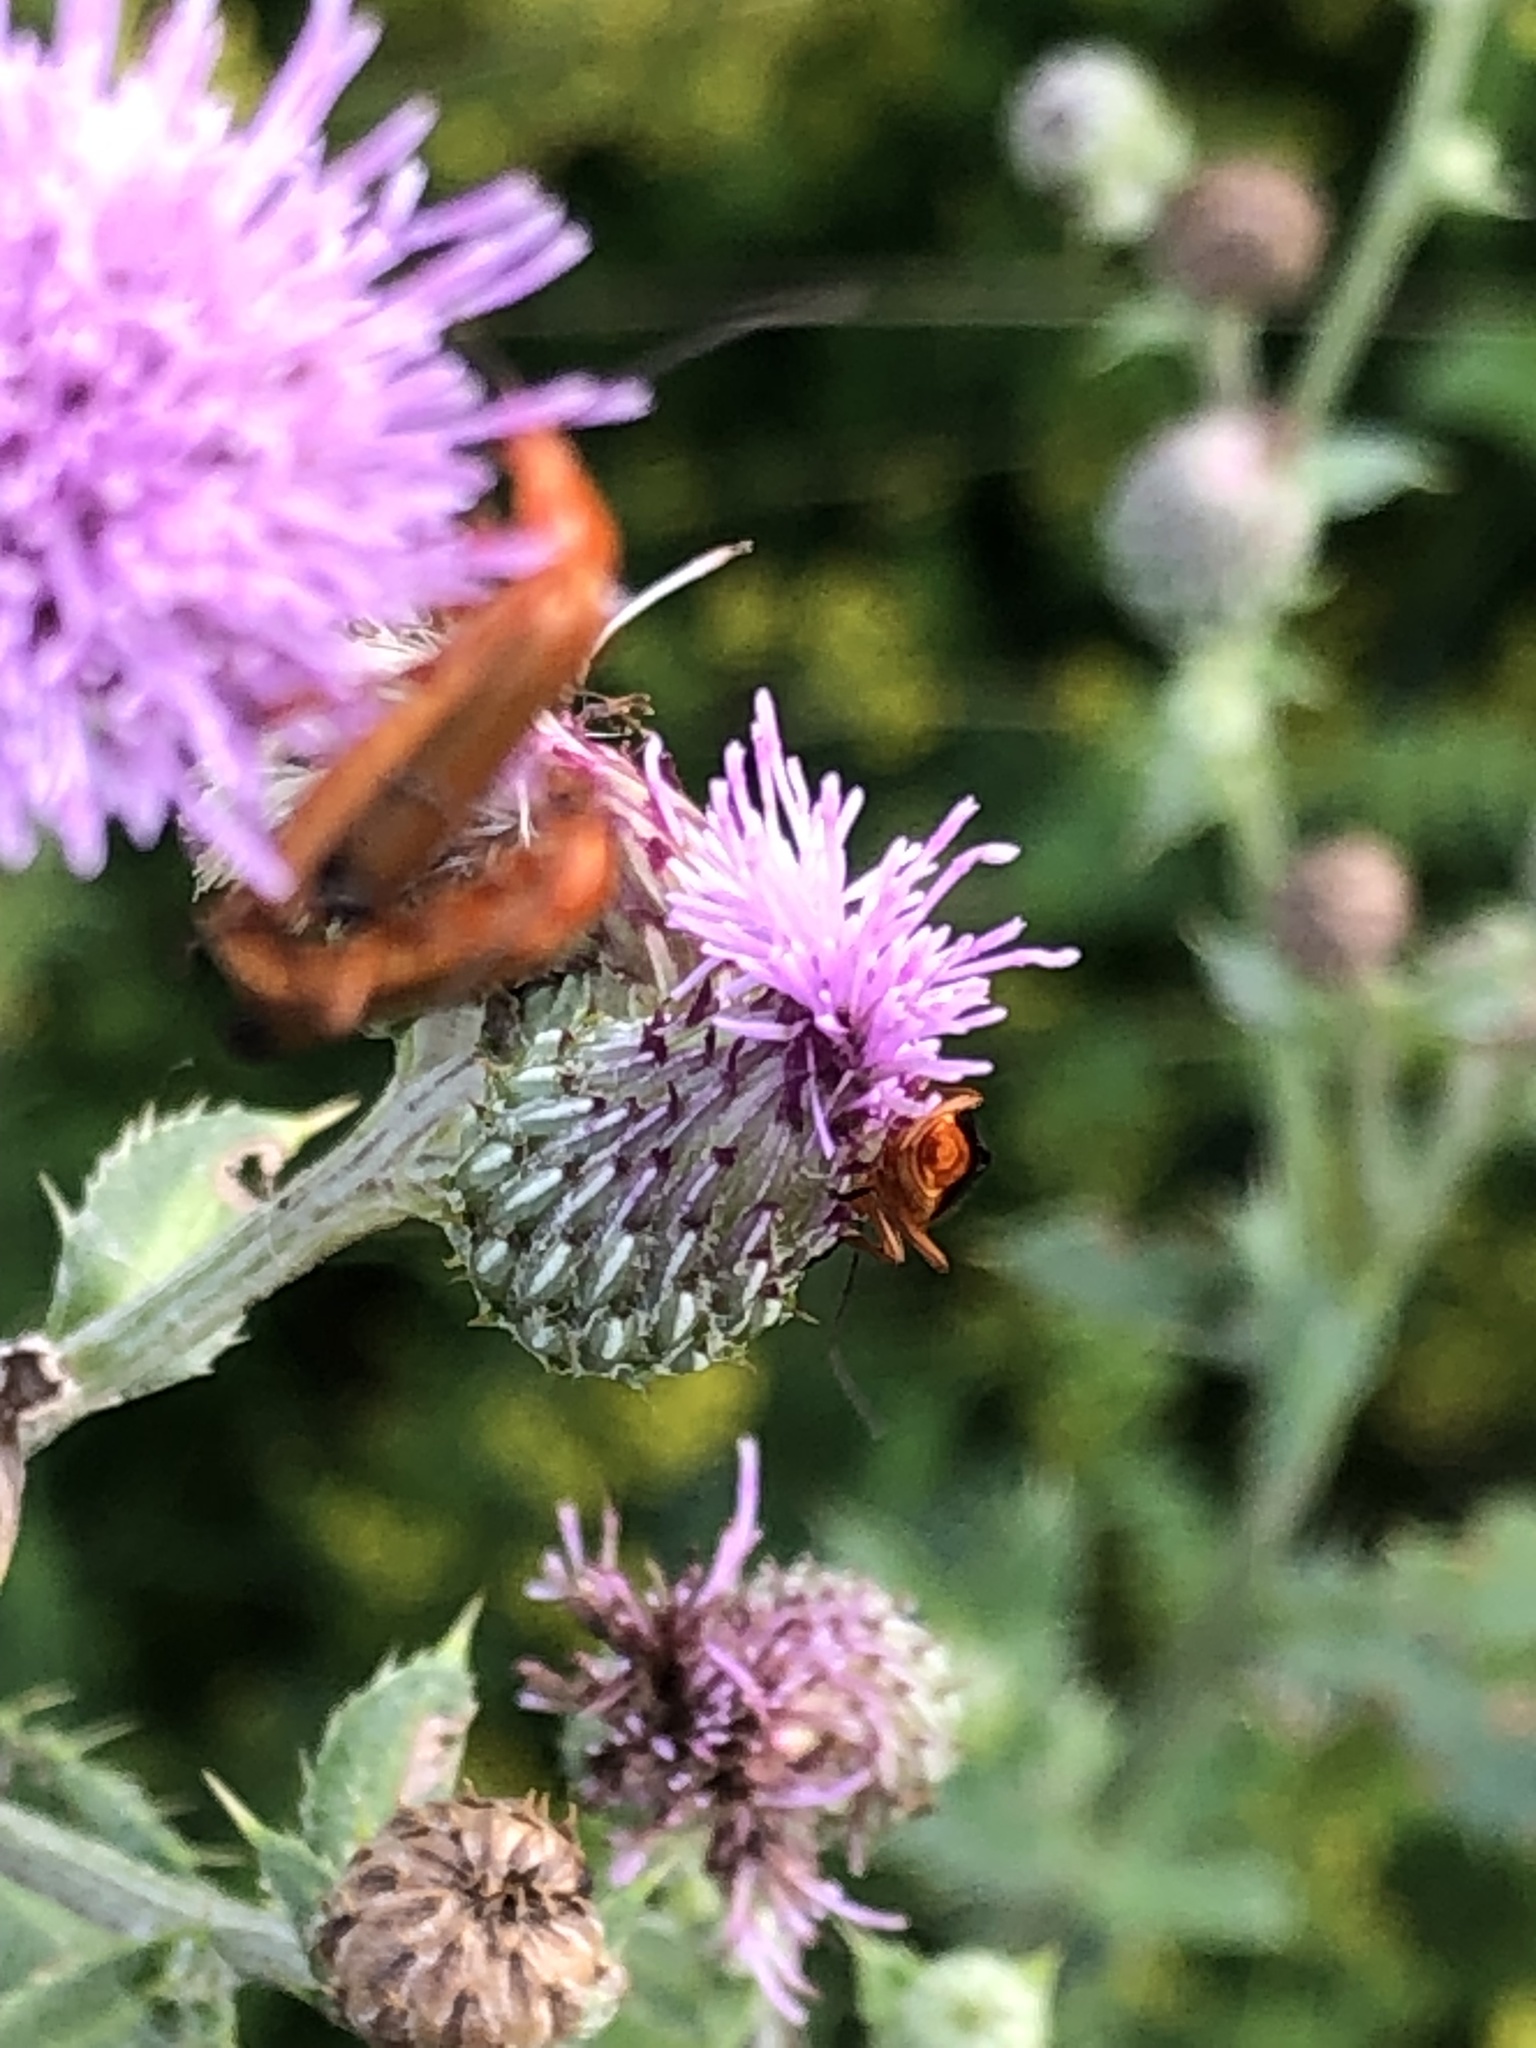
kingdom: Animalia
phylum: Arthropoda
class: Insecta
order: Coleoptera
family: Cantharidae
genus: Rhagonycha
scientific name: Rhagonycha fulva
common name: Common red soldier beetle
